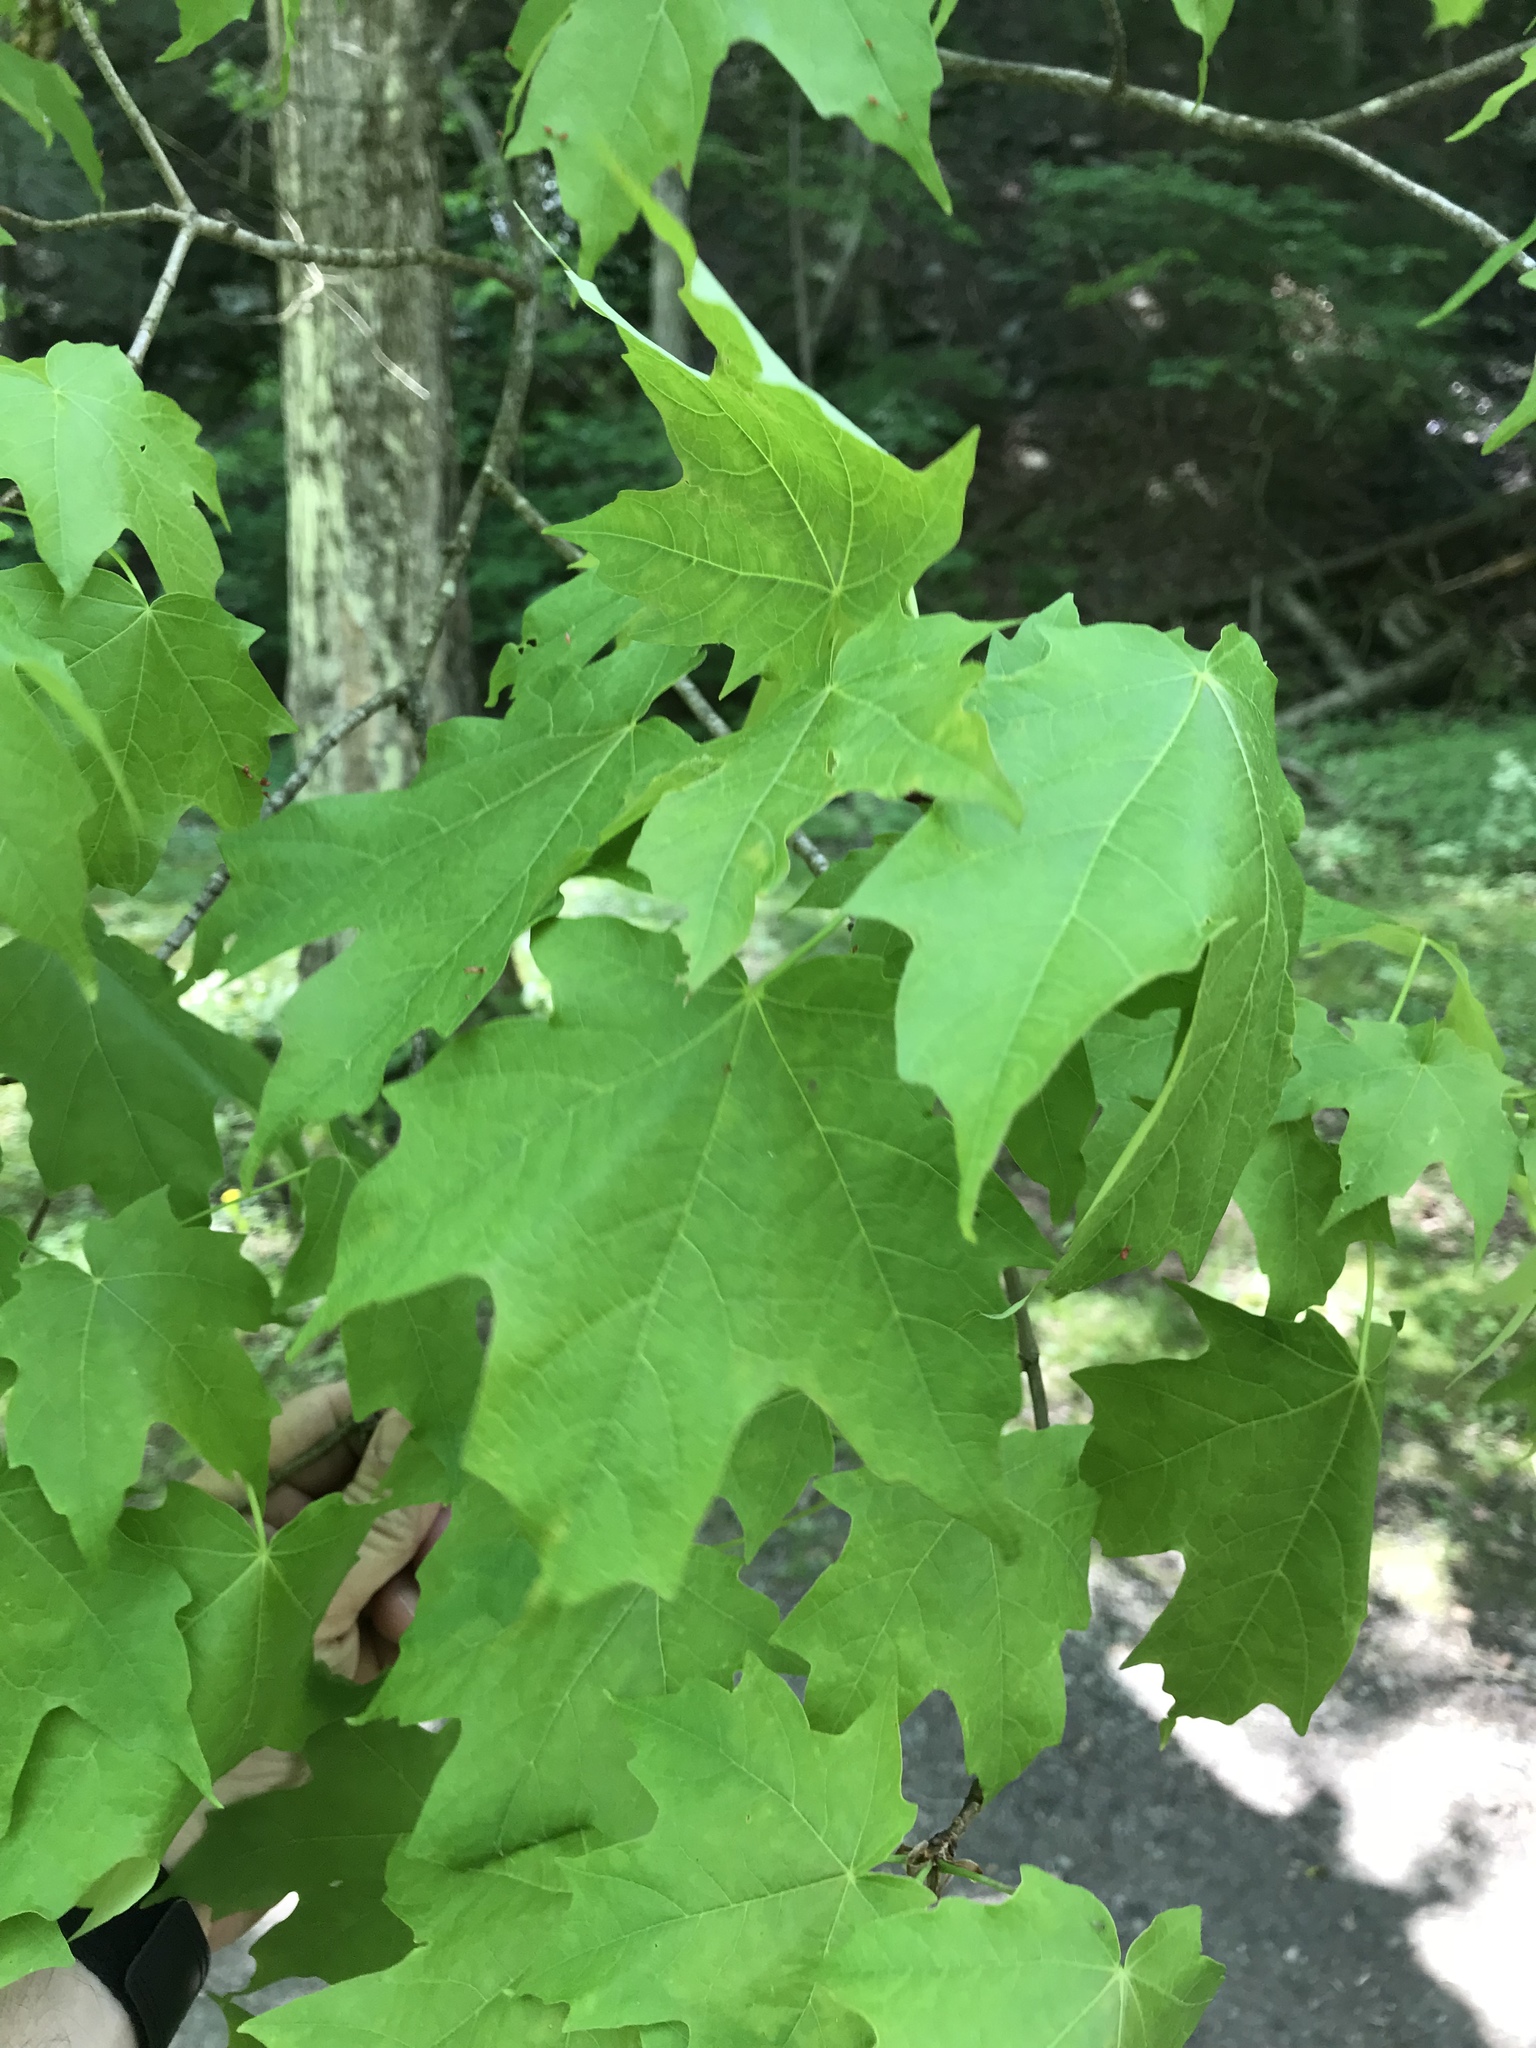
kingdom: Plantae
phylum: Tracheophyta
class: Magnoliopsida
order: Sapindales
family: Sapindaceae
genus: Acer
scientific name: Acer saccharum
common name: Sugar maple
